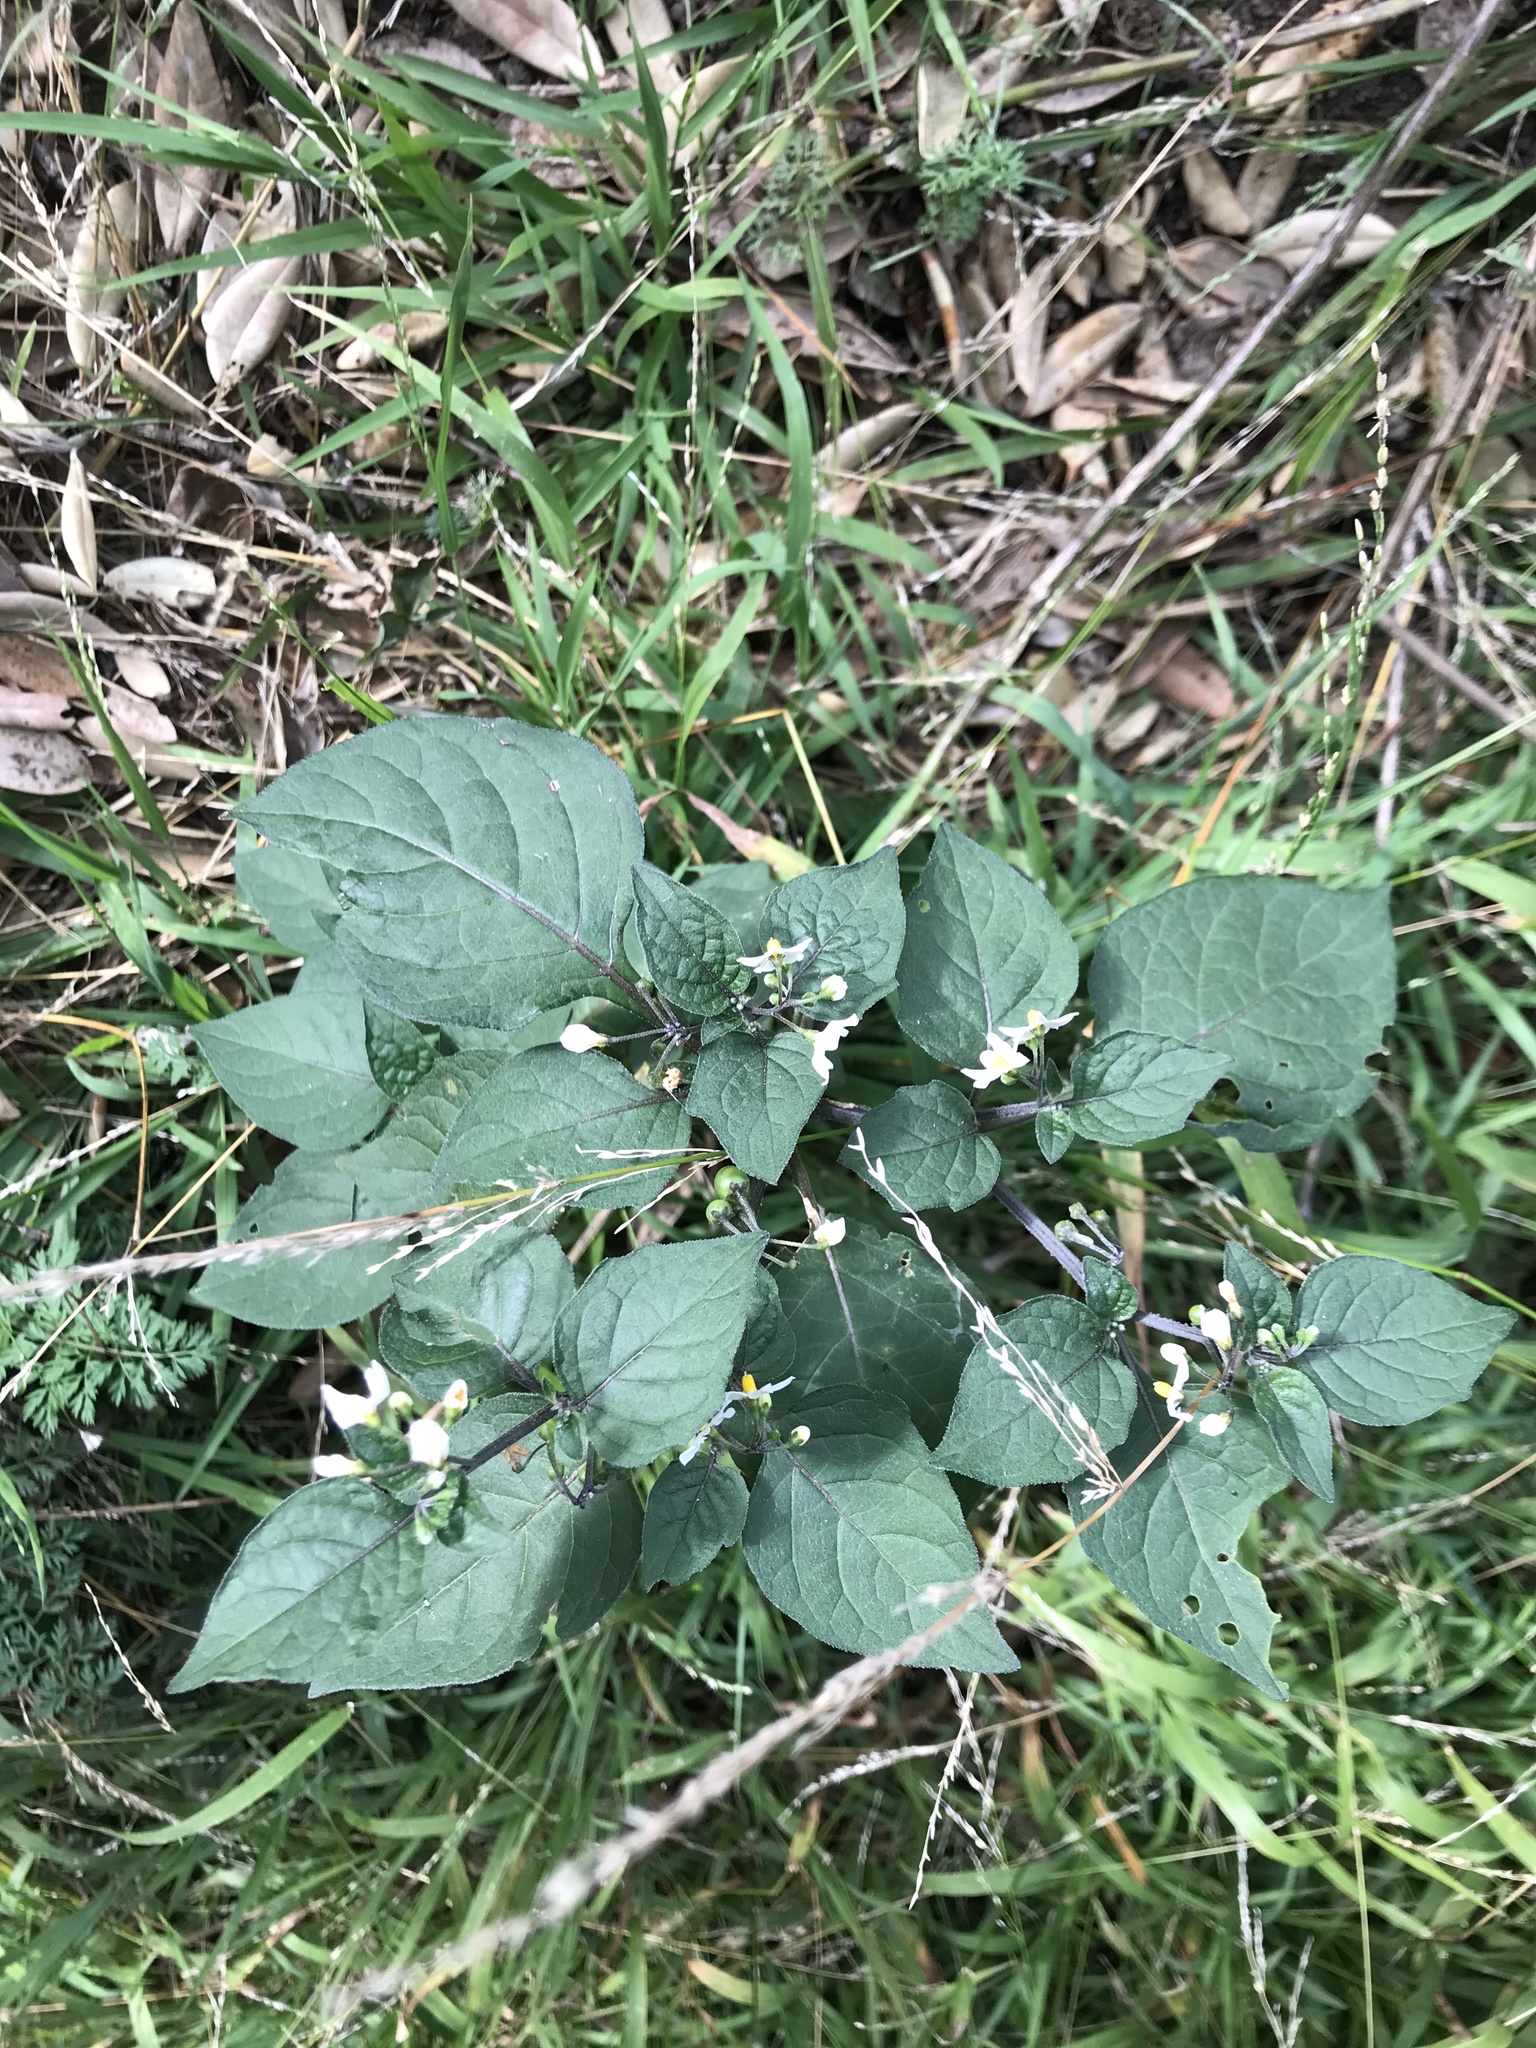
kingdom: Plantae
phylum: Tracheophyta
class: Magnoliopsida
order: Solanales
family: Solanaceae
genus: Solanum
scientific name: Solanum nigrum
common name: Black nightshade
